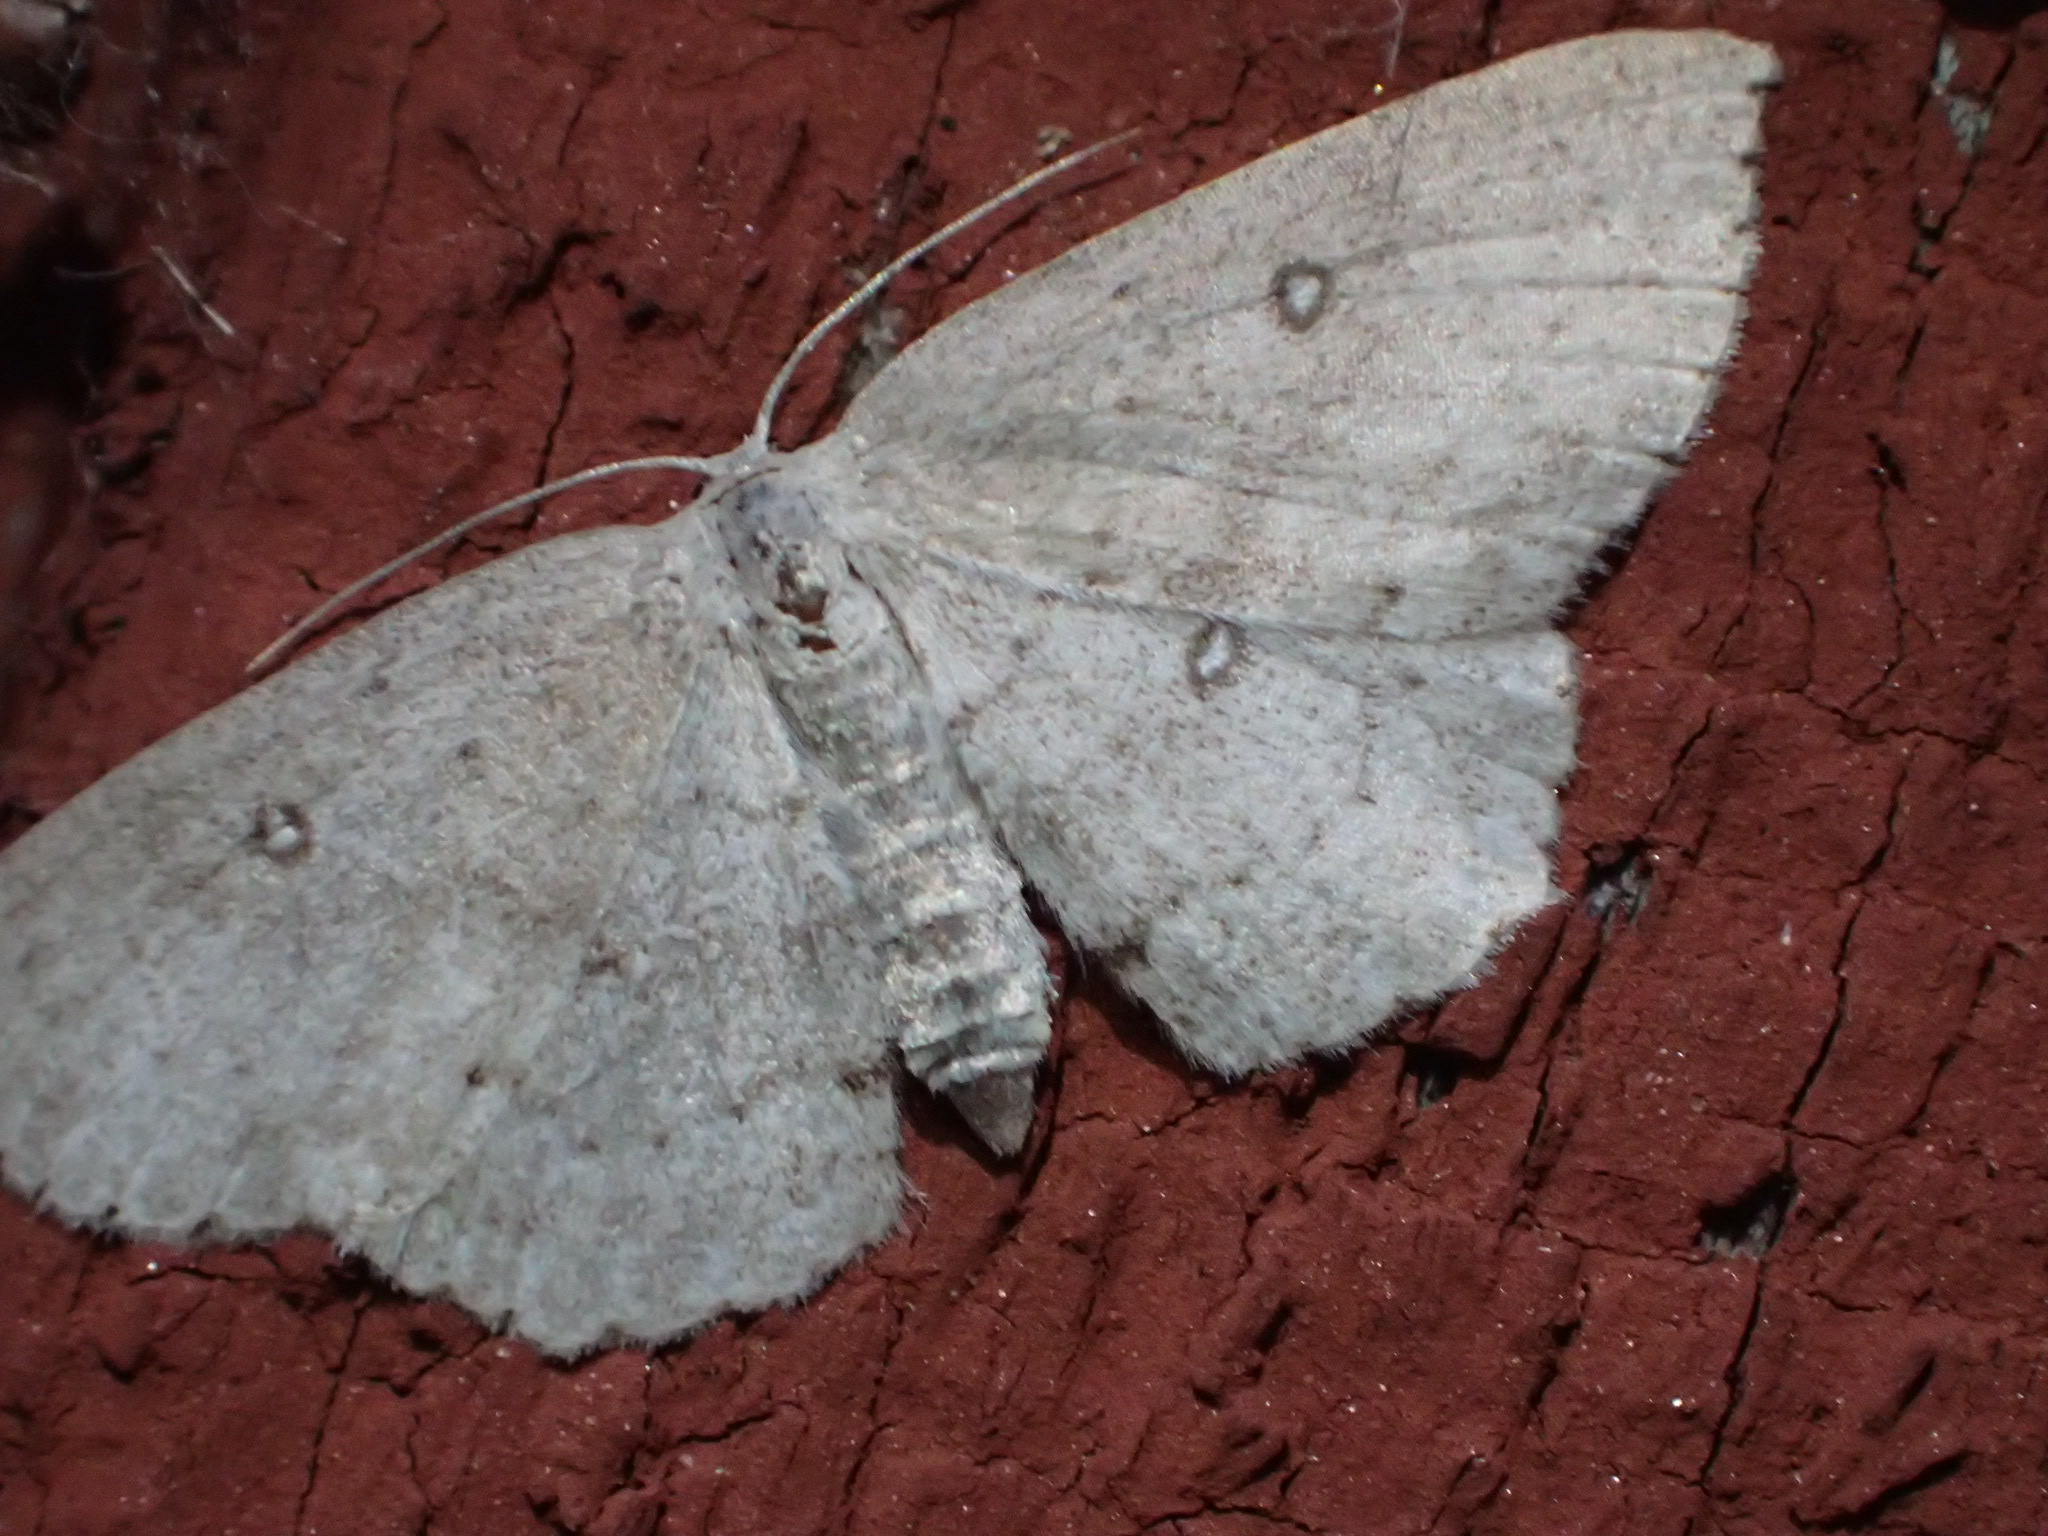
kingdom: Animalia
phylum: Arthropoda
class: Insecta
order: Lepidoptera
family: Geometridae
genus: Cyclophora
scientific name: Cyclophora pendulinaria
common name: Sweet fern geometer
